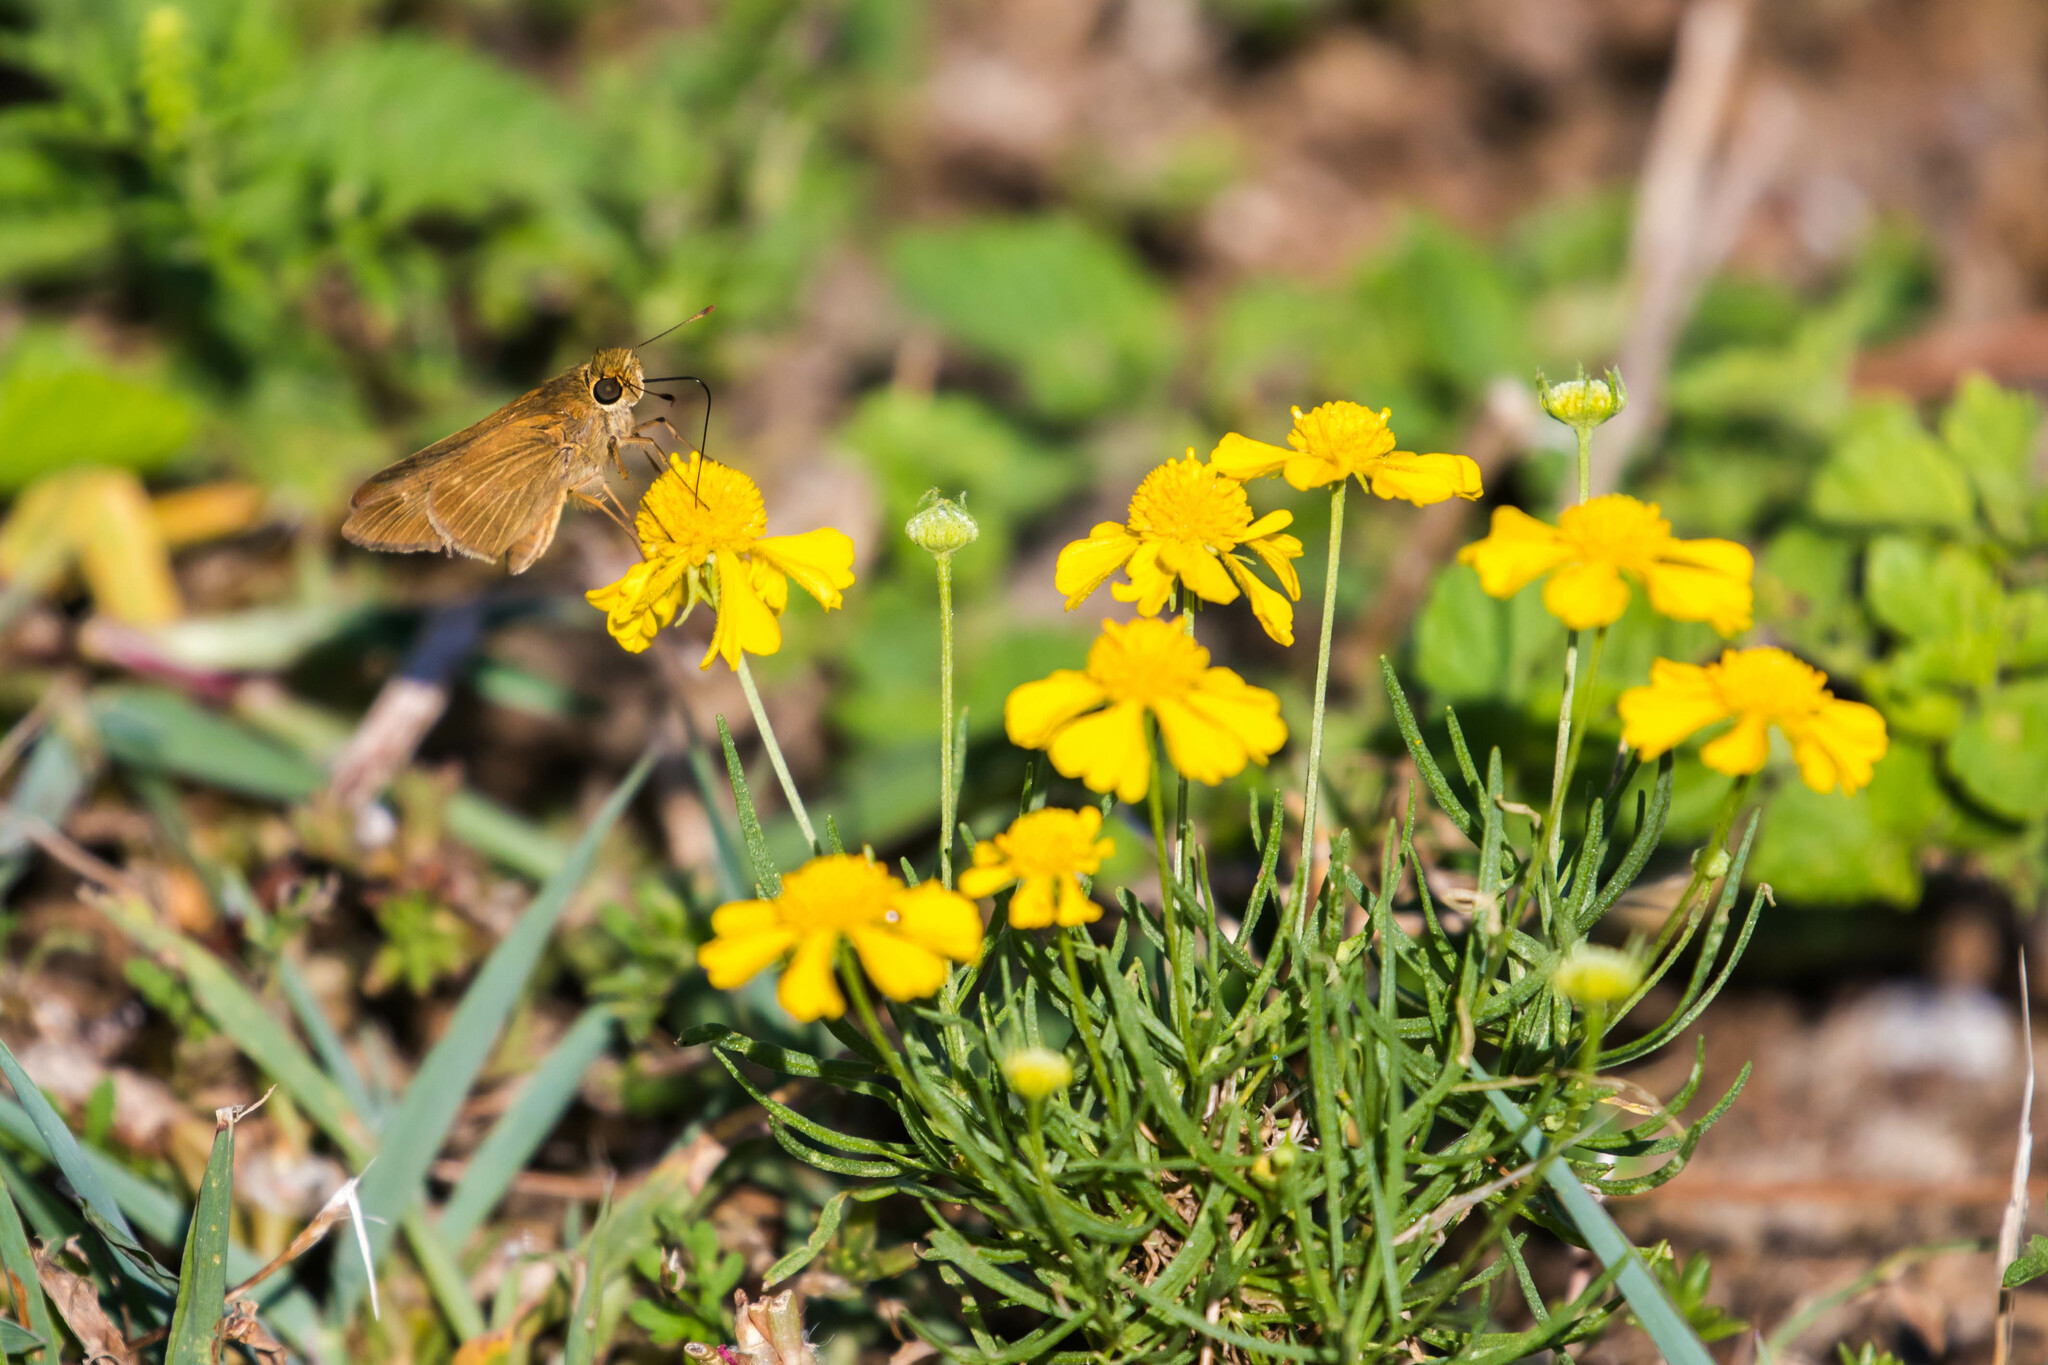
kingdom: Animalia
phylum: Arthropoda
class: Insecta
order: Lepidoptera
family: Hesperiidae
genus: Panoquina
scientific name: Panoquina ocola
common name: Ocola skipper
